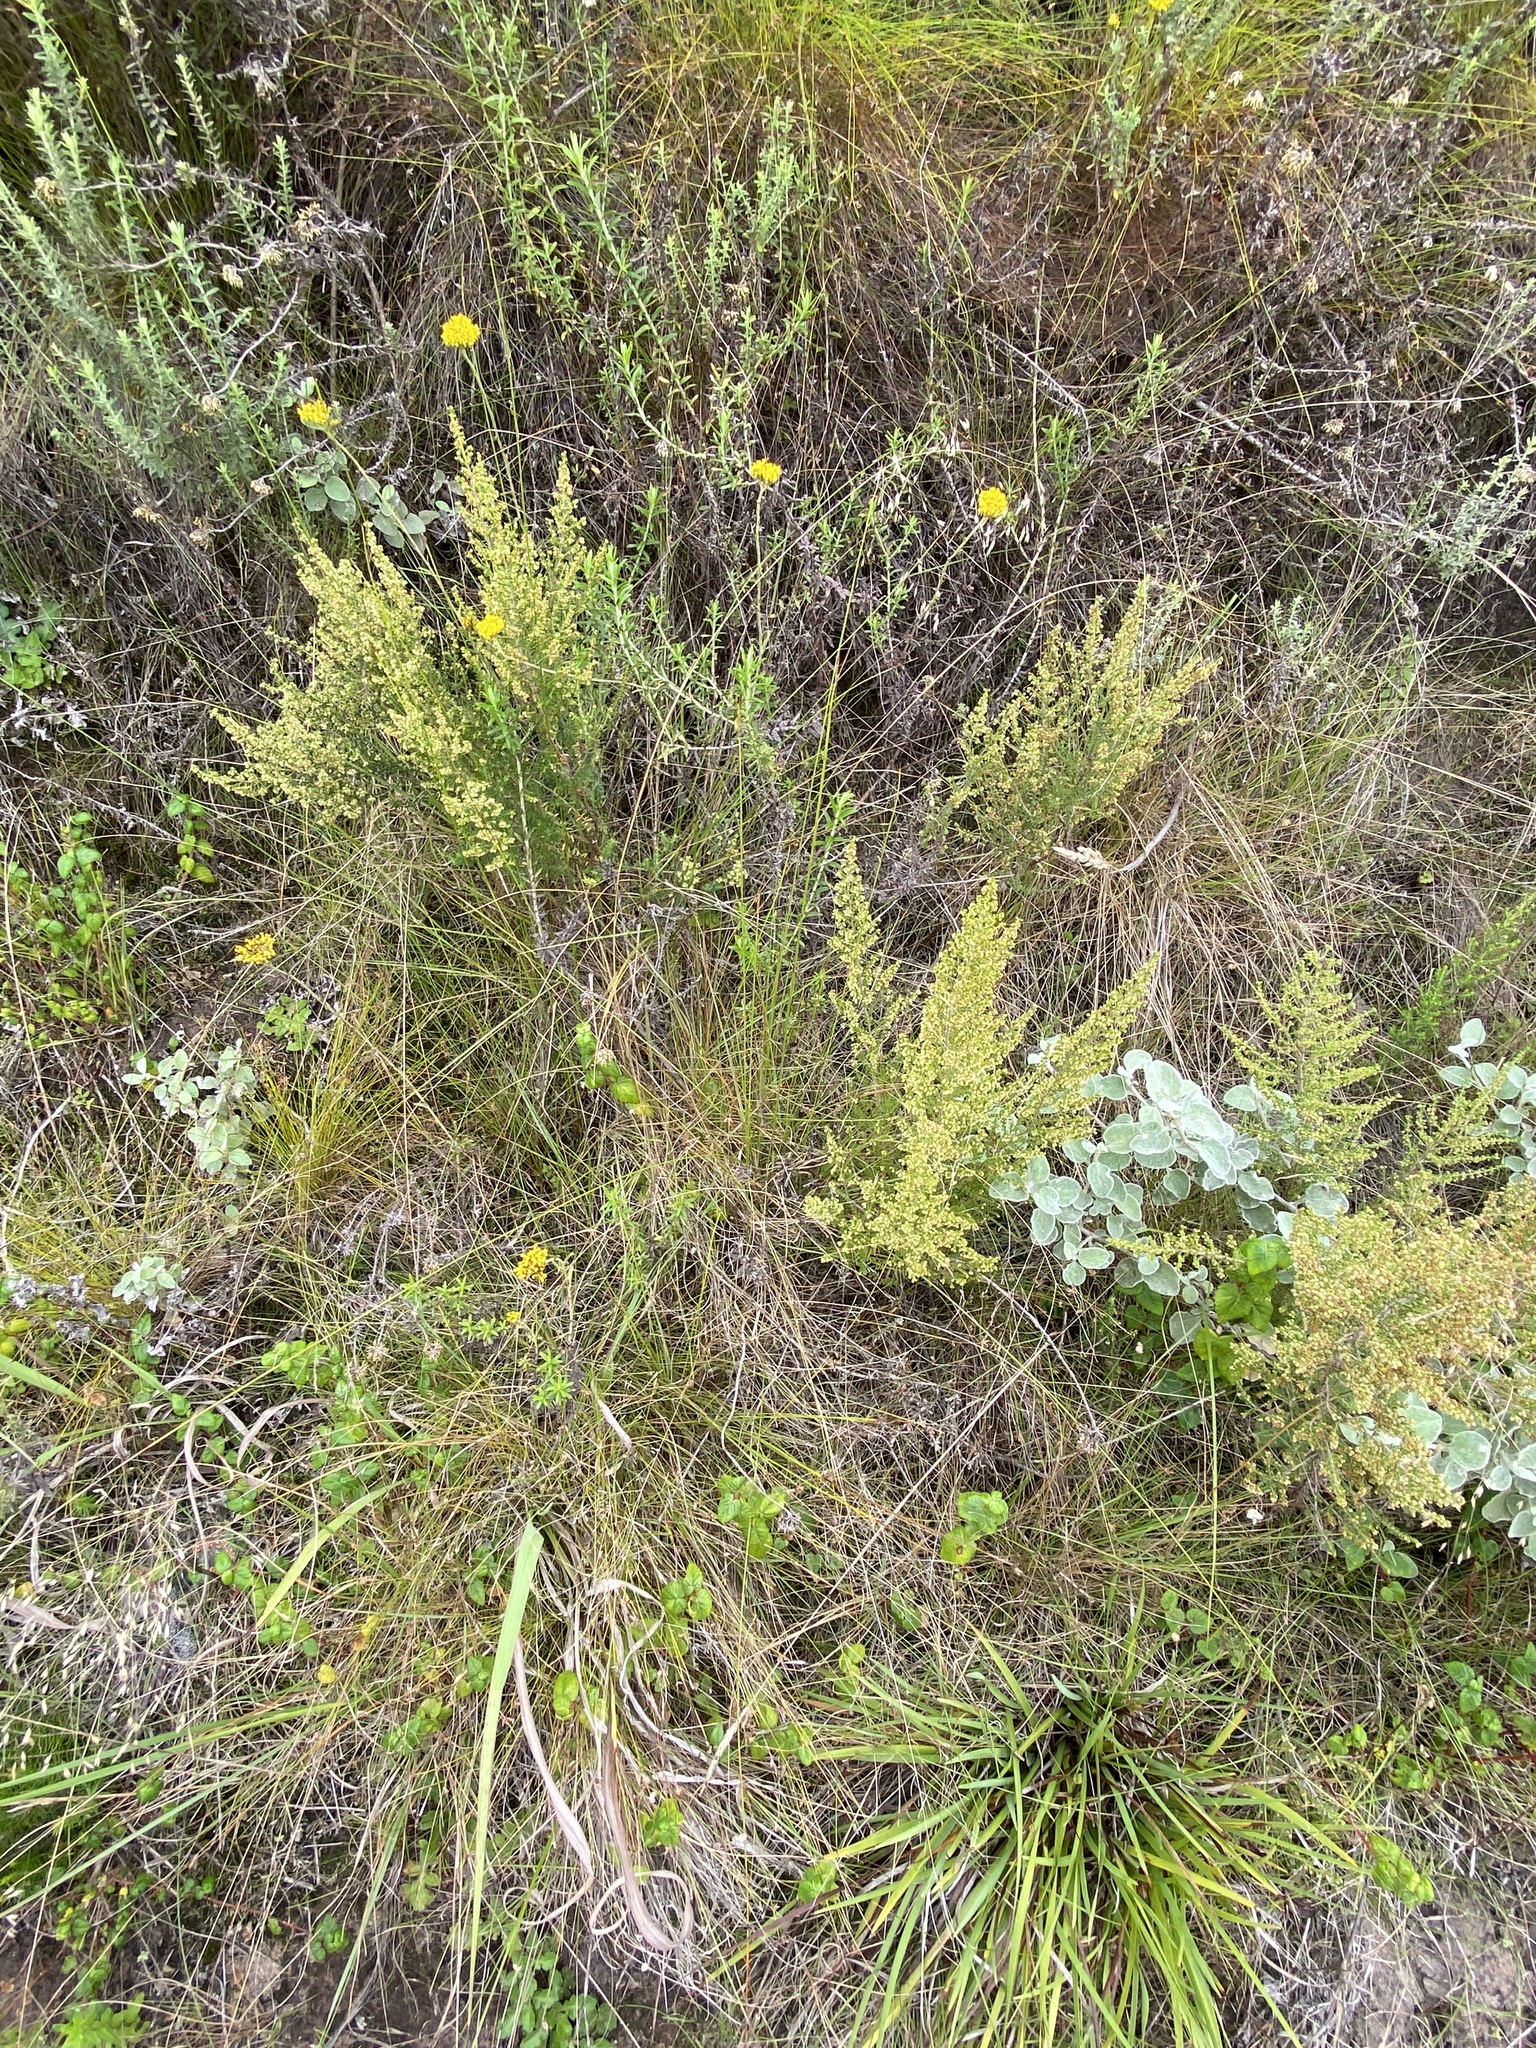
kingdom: Plantae
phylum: Tracheophyta
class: Magnoliopsida
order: Ericales
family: Ericaceae
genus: Erica
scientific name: Erica leucopelta
